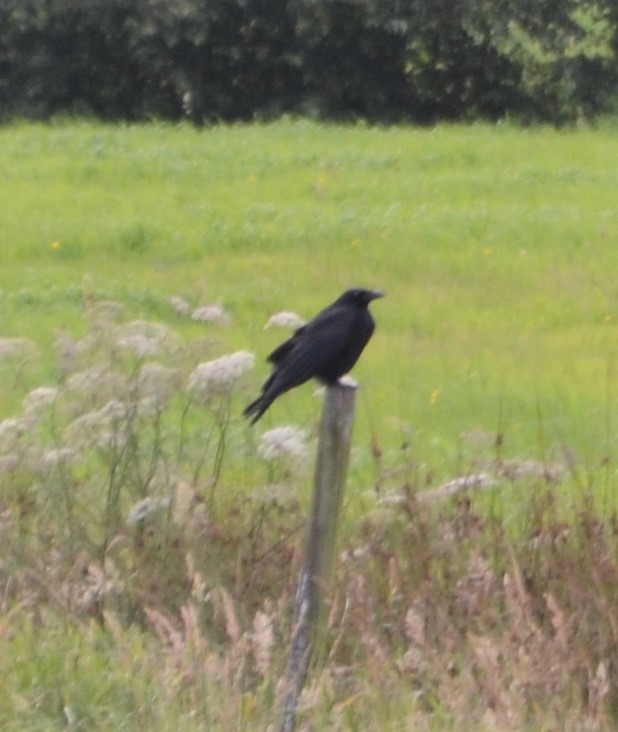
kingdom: Animalia
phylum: Chordata
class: Aves
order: Passeriformes
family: Corvidae
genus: Corvus
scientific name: Corvus corone
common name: Carrion crow
